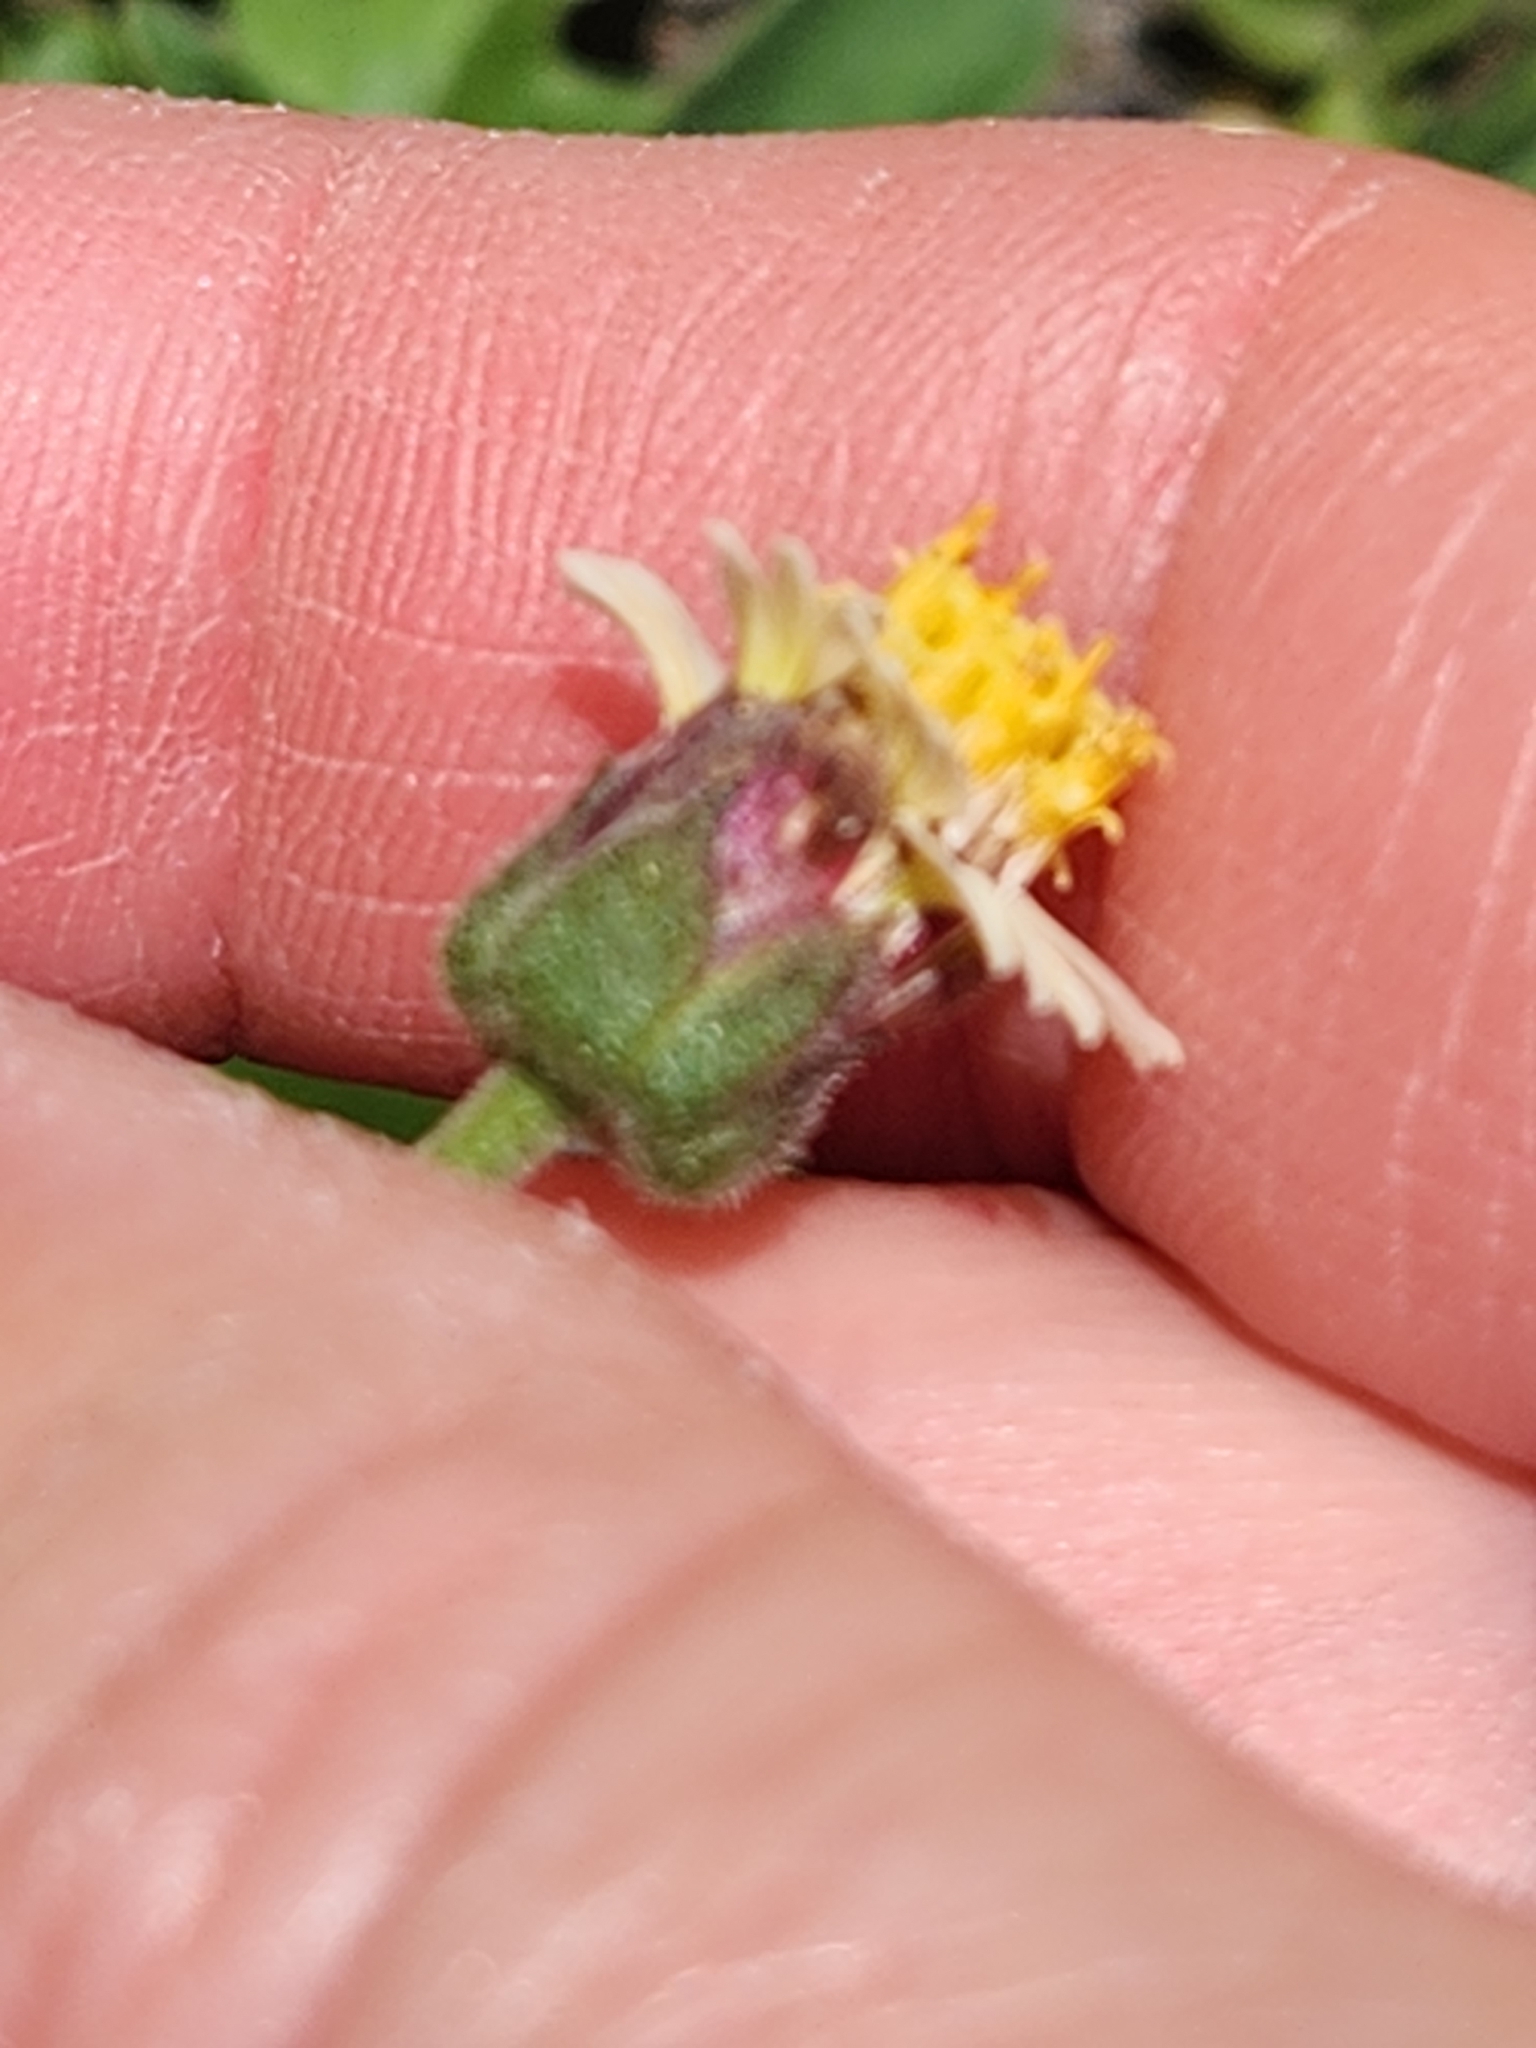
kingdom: Plantae
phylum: Tracheophyta
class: Magnoliopsida
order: Asterales
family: Asteraceae
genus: Tridax
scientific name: Tridax procumbens
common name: Coatbuttons
